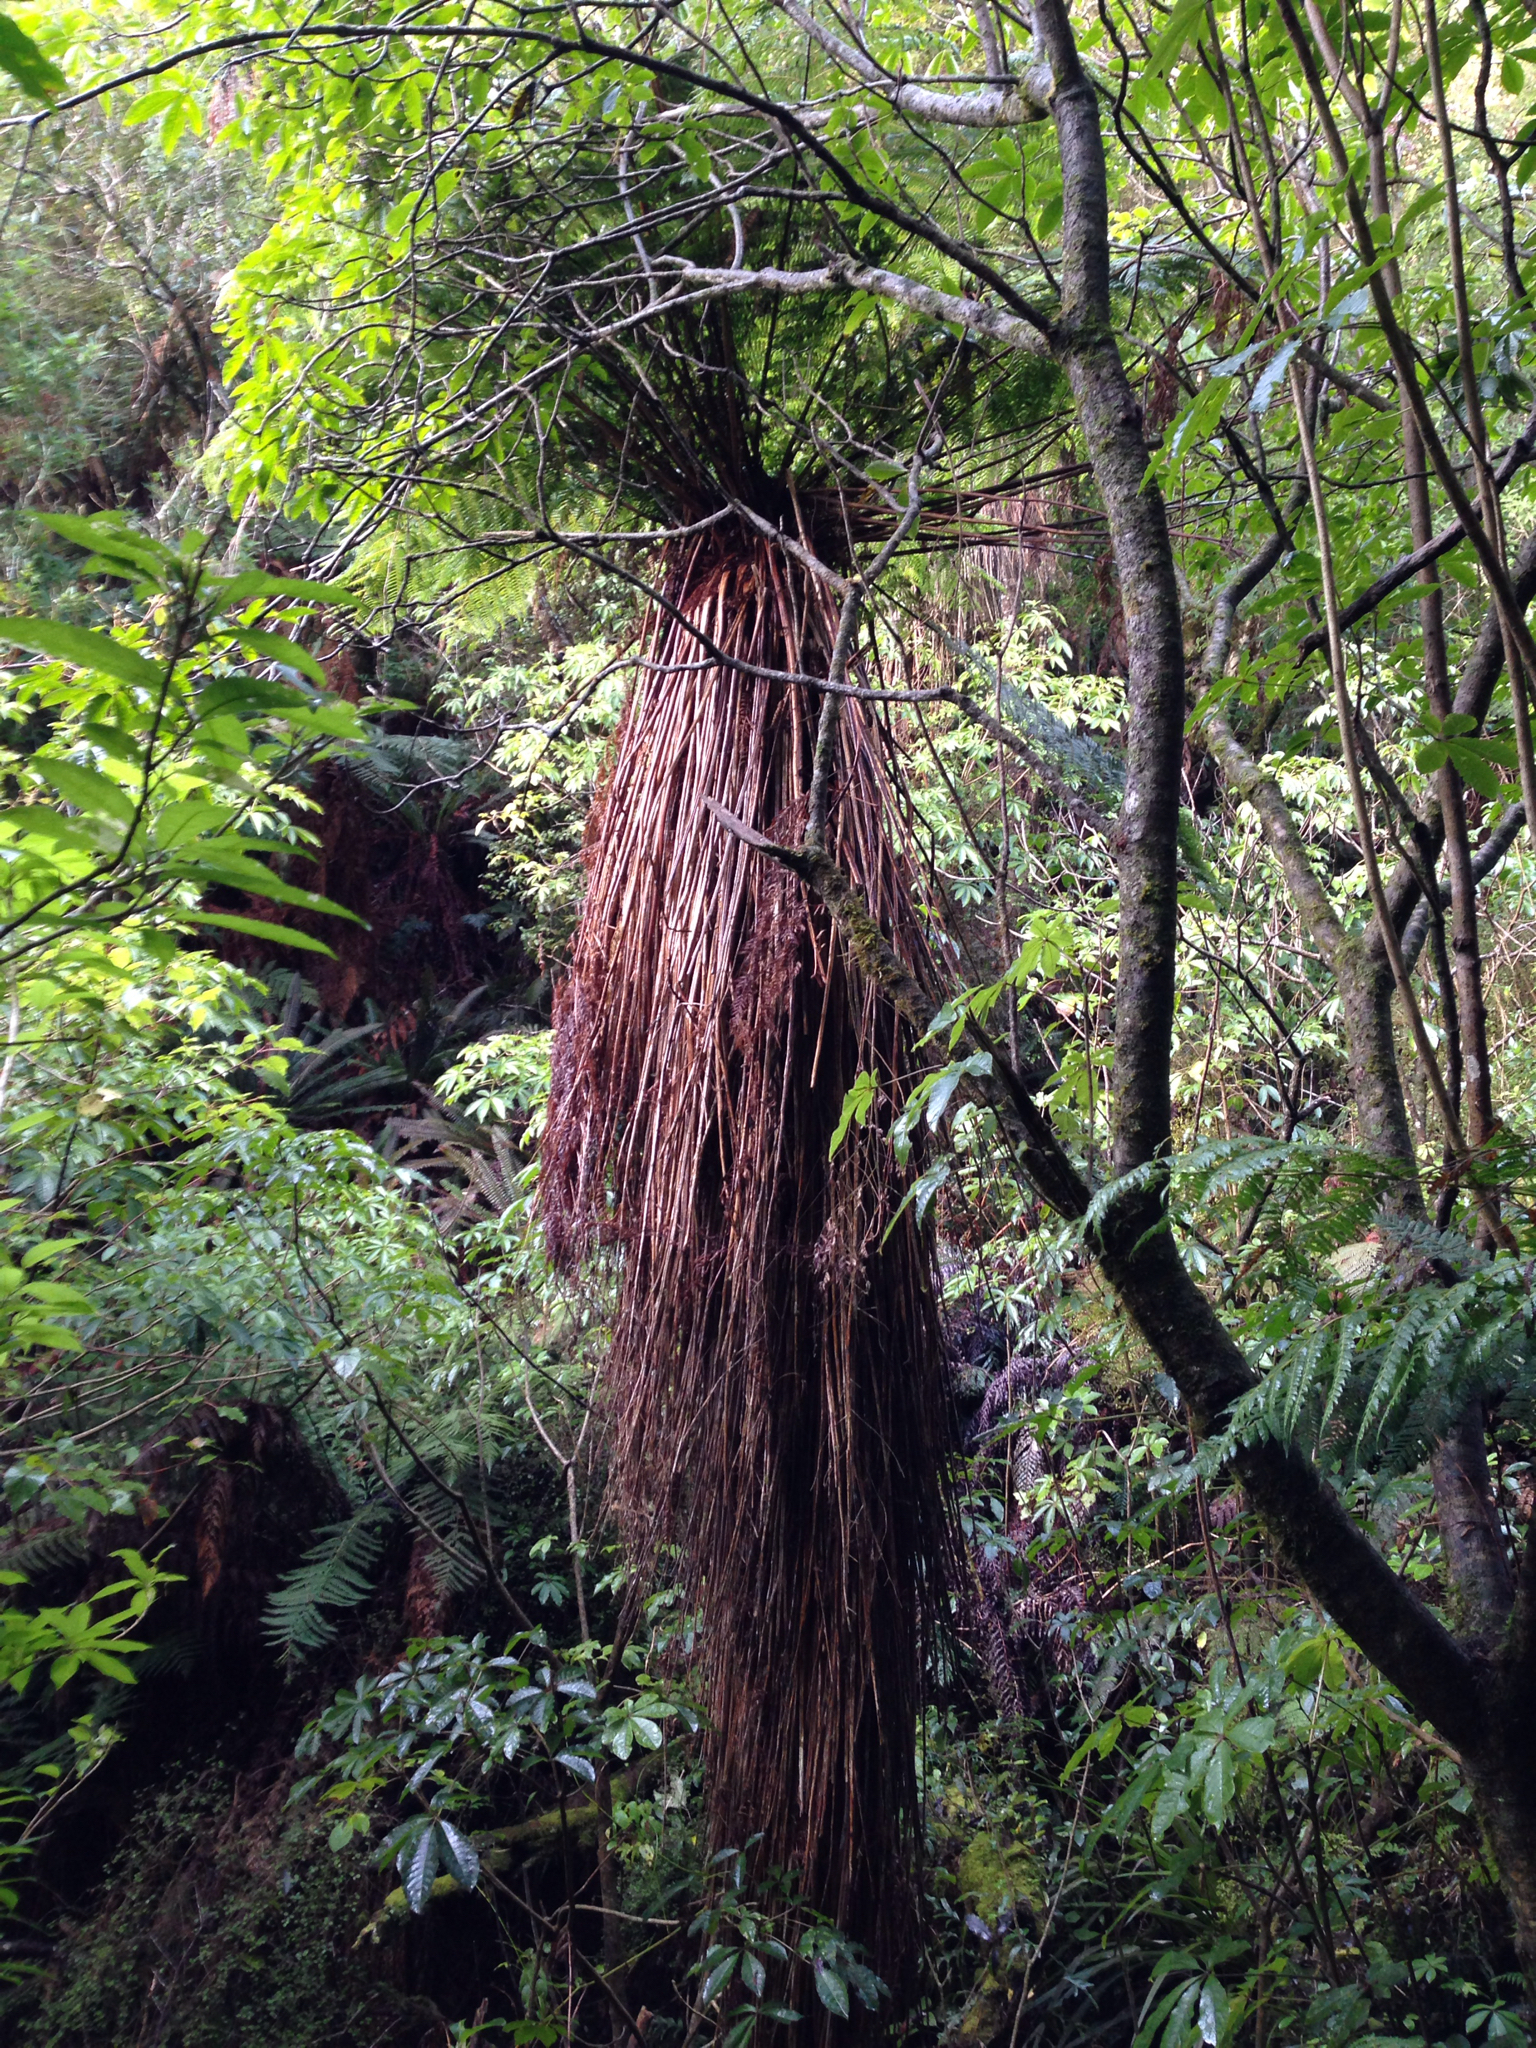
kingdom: Plantae
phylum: Tracheophyta
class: Polypodiopsida
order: Cyatheales
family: Cyatheaceae
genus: Alsophila
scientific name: Alsophila smithii
